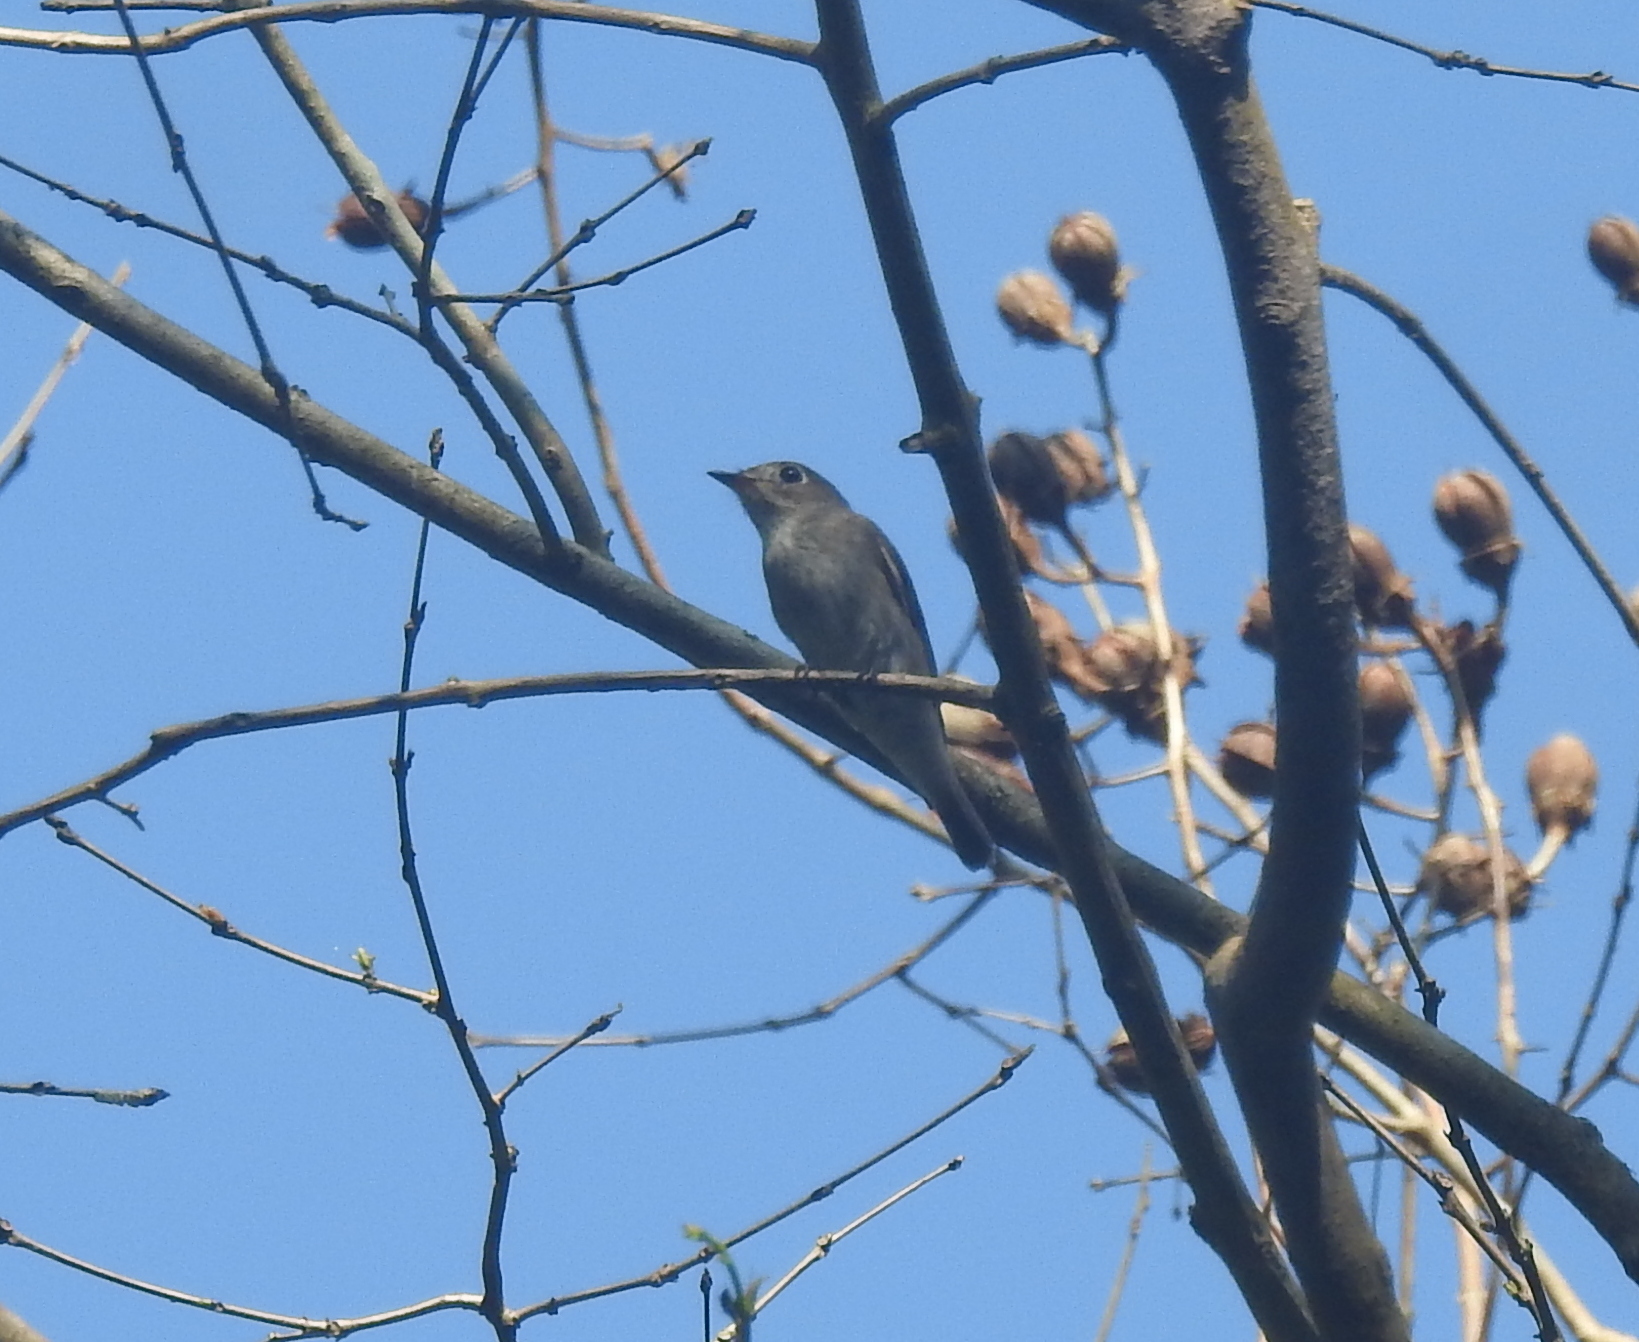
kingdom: Animalia
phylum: Chordata
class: Aves
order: Passeriformes
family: Muscicapidae
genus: Muscicapa
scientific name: Muscicapa latirostris
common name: Asian brown flycatcher
